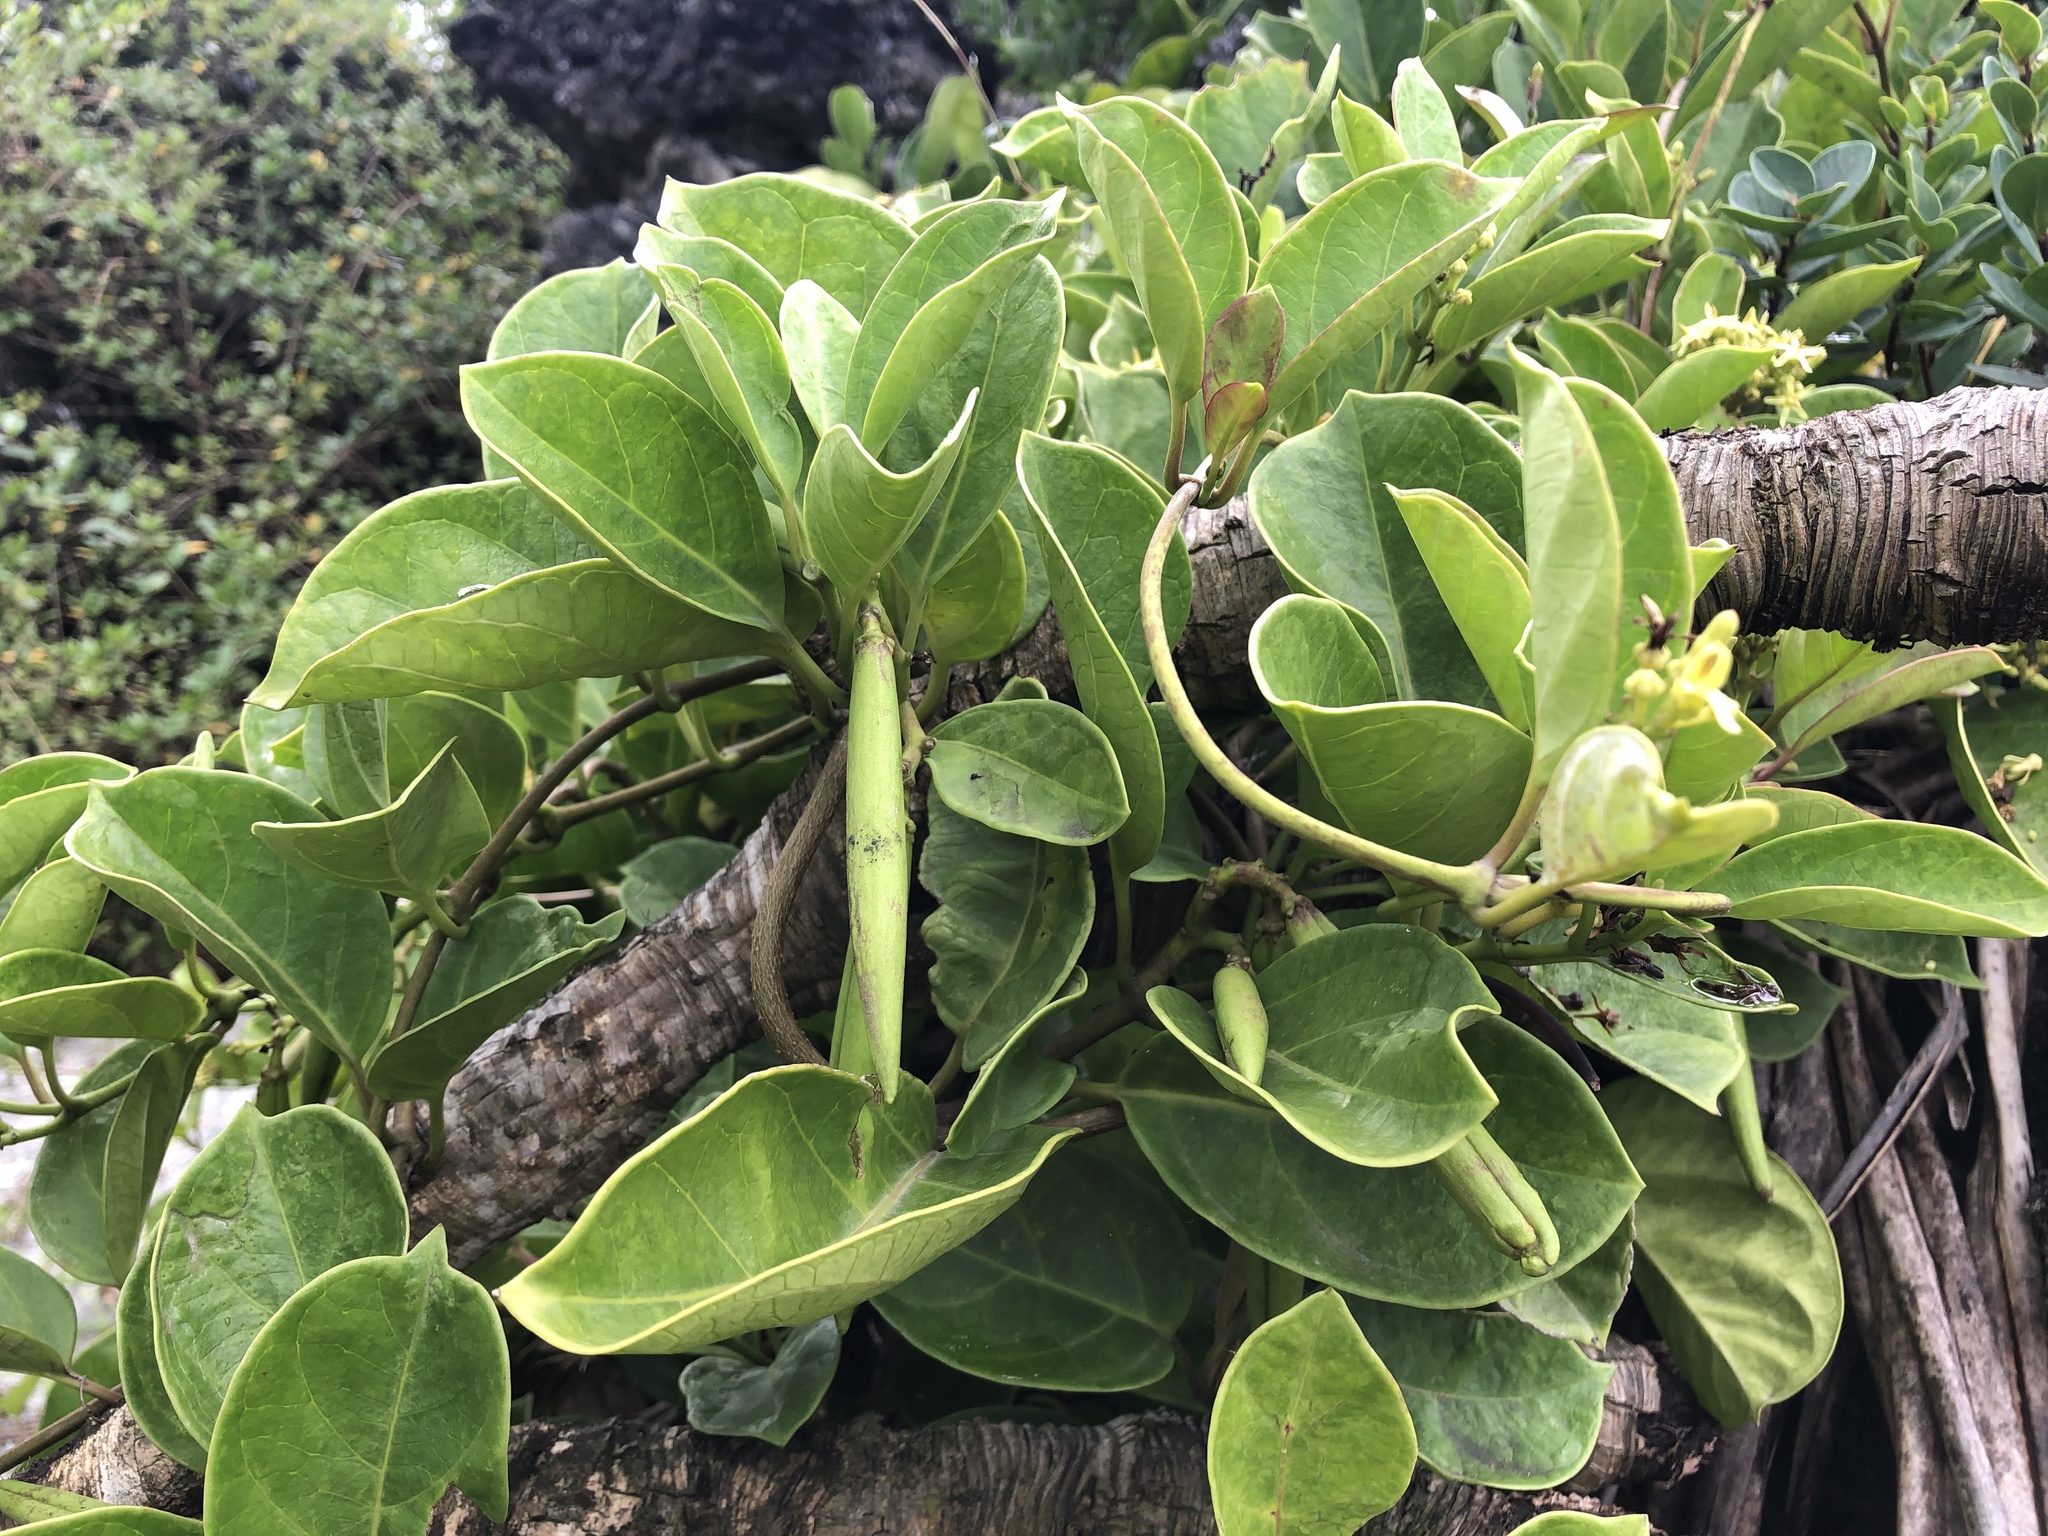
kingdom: Plantae
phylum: Tracheophyta
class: Magnoliopsida
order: Gentianales
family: Apocynaceae
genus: Parsonsia
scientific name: Parsonsia alboflavescens
